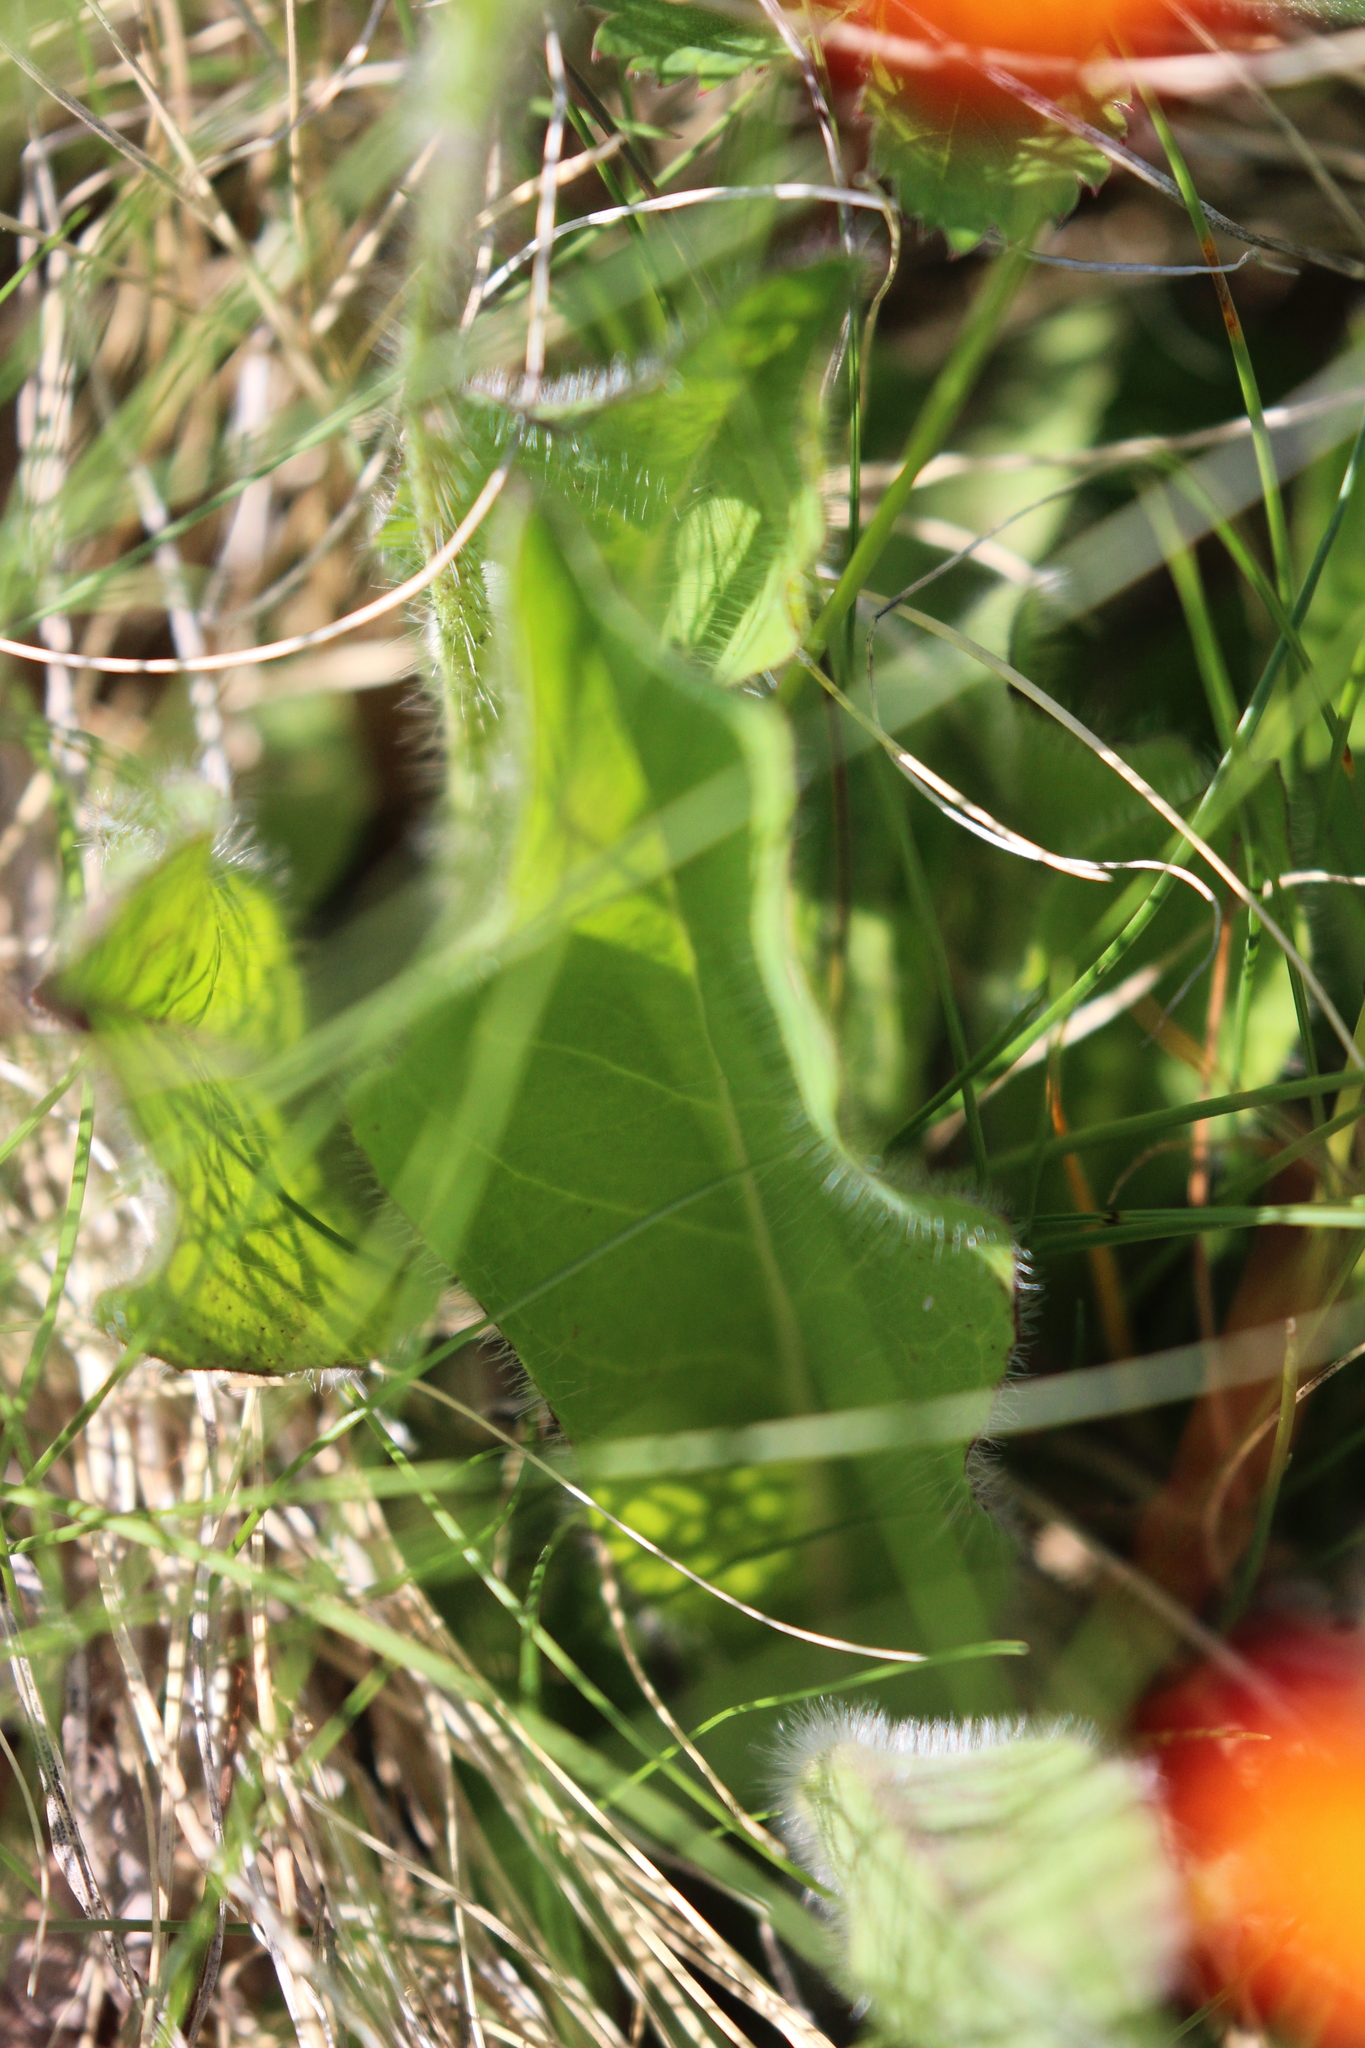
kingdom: Plantae
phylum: Tracheophyta
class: Magnoliopsida
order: Asterales
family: Asteraceae
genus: Pilosella
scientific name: Pilosella aurantiaca
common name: Fox-and-cubs
